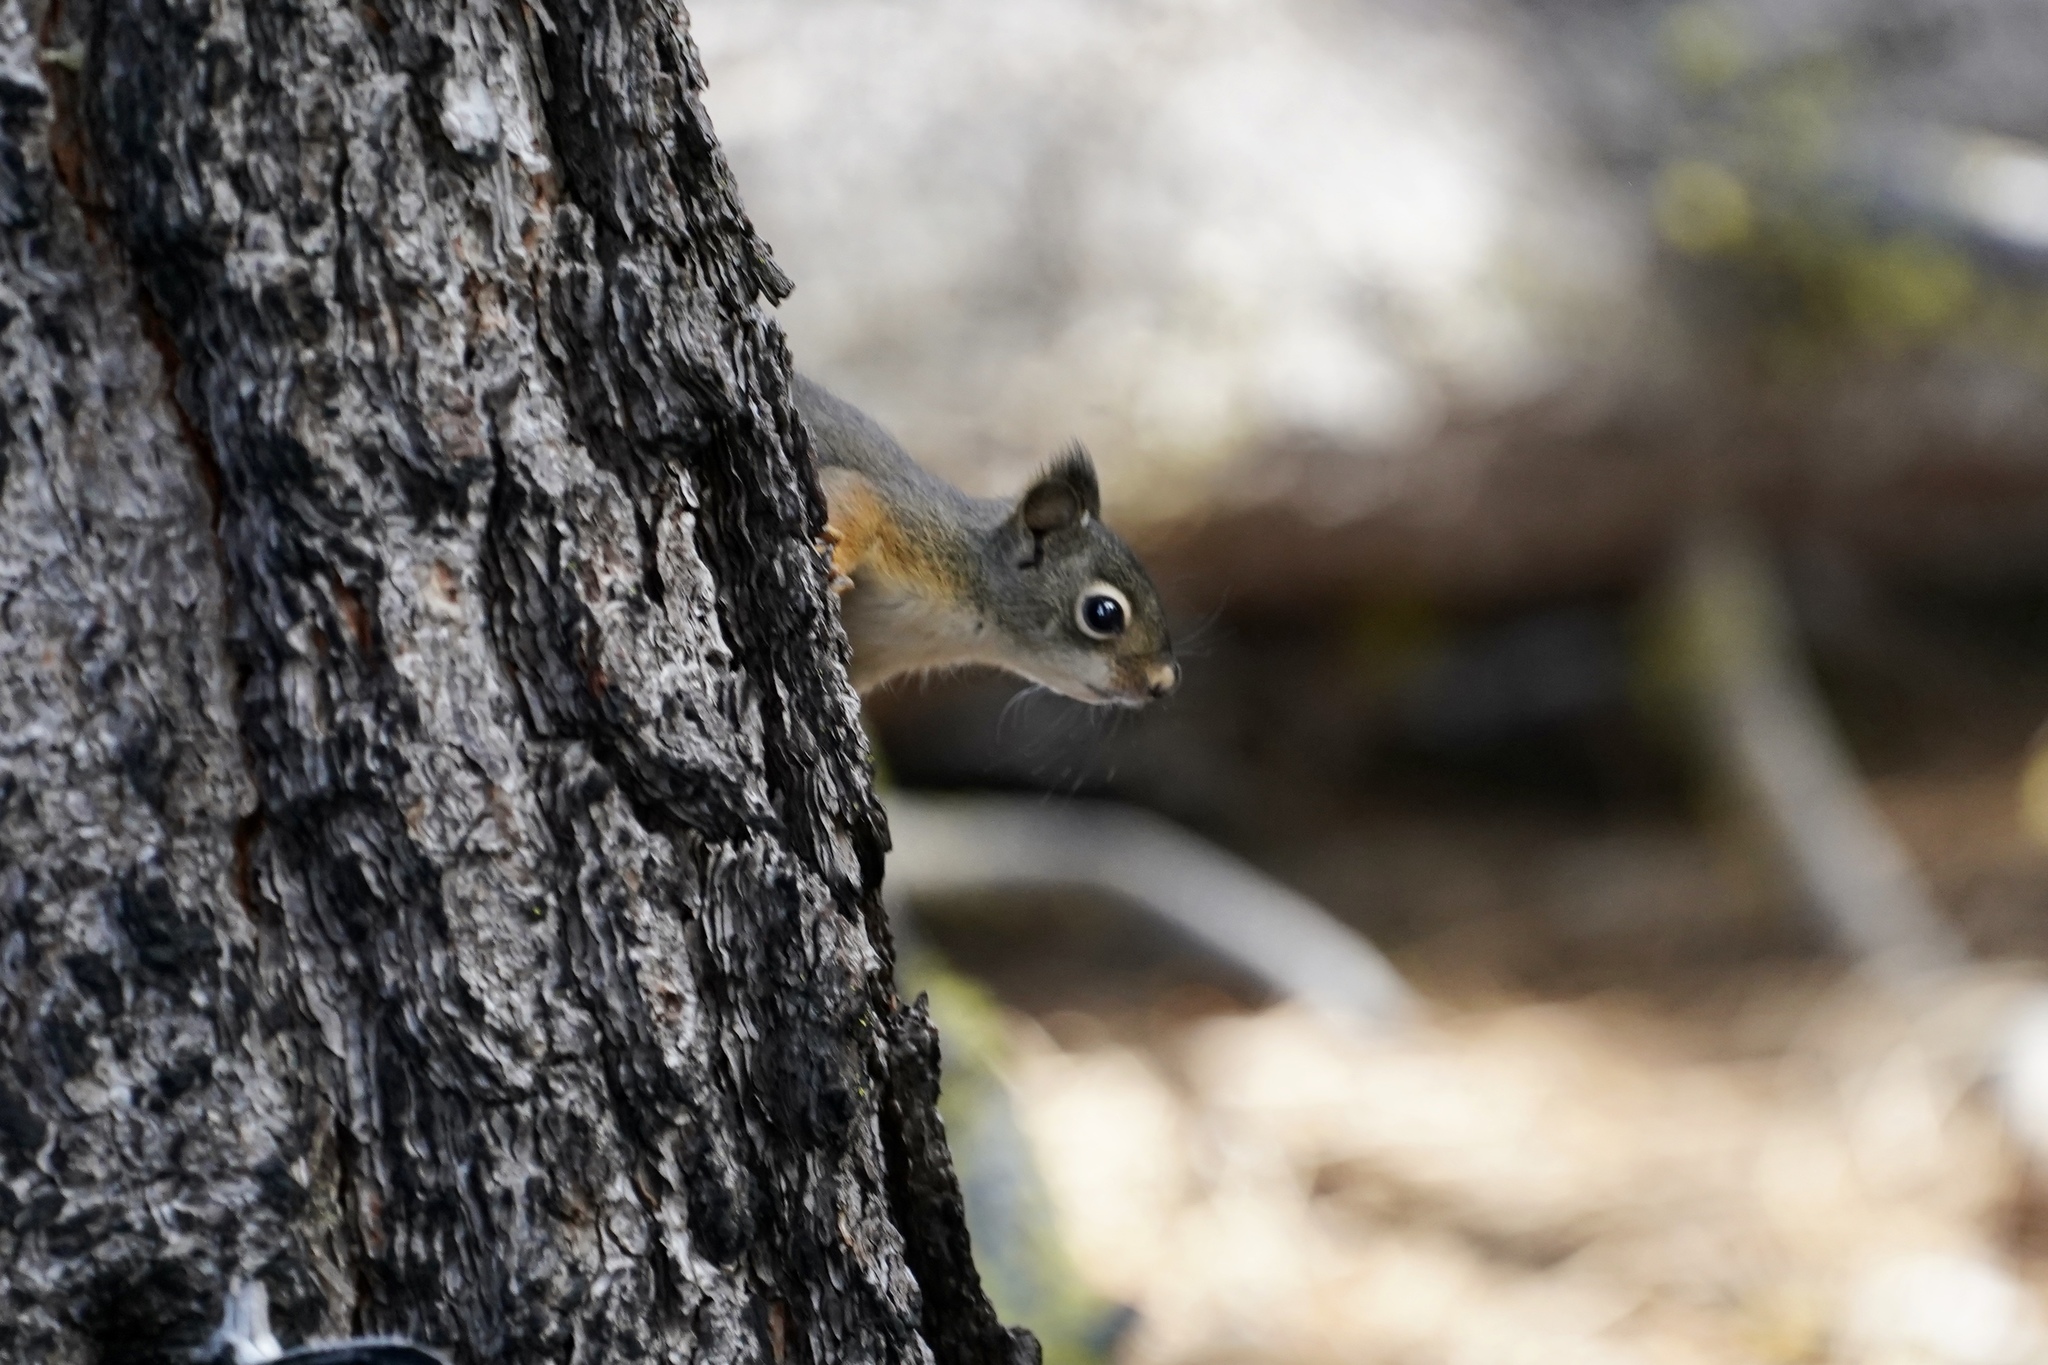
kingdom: Animalia
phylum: Chordata
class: Mammalia
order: Rodentia
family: Sciuridae
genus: Tamiasciurus
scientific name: Tamiasciurus douglasii
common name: Douglas's squirrel
